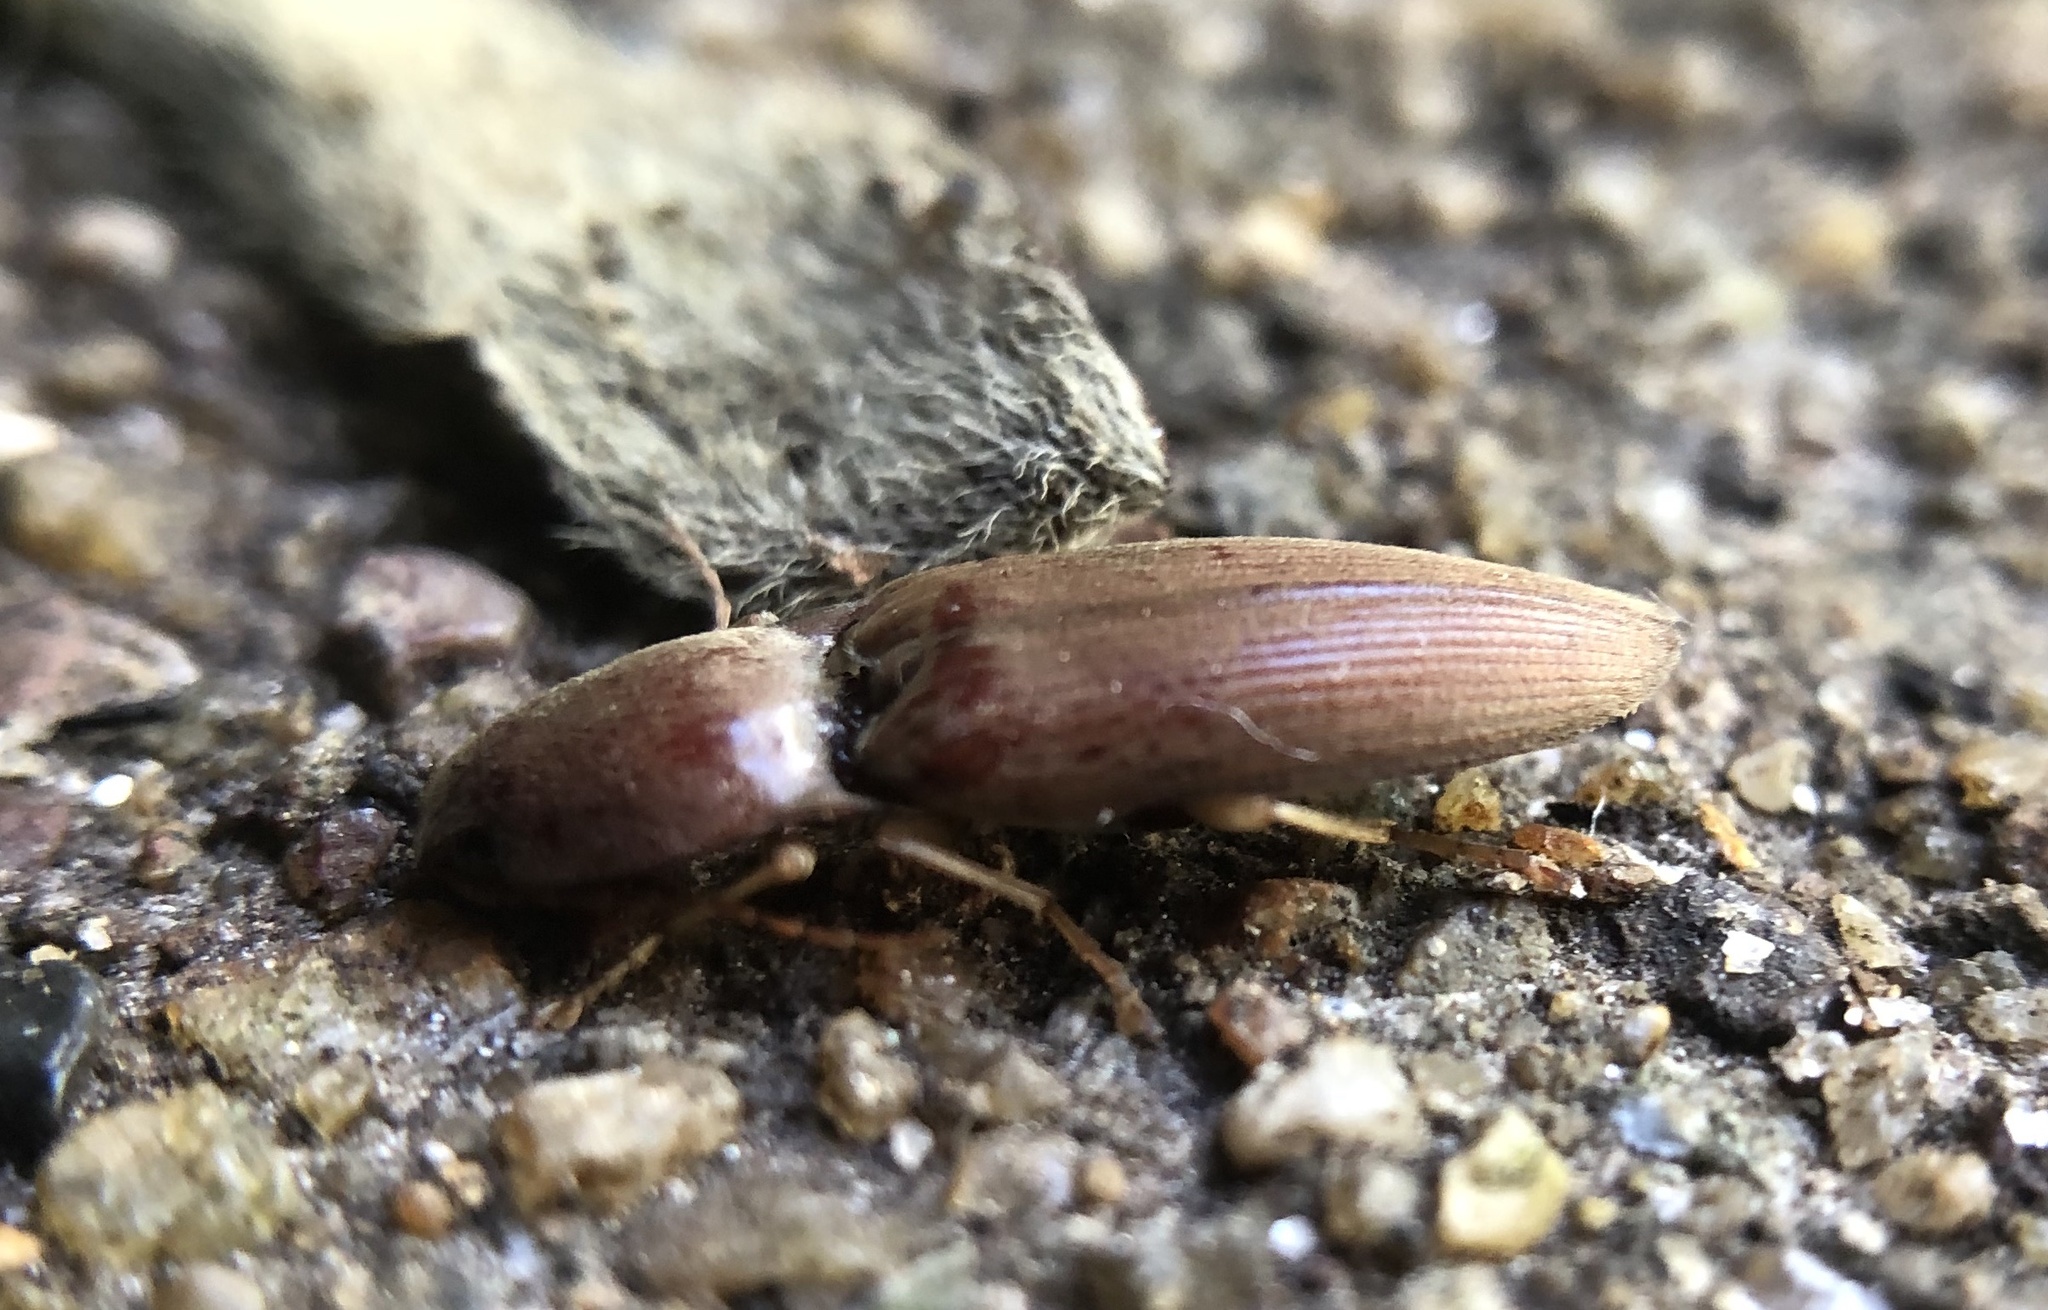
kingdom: Animalia
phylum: Arthropoda
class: Insecta
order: Coleoptera
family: Elateridae
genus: Monocrepidius
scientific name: Monocrepidius lividus
